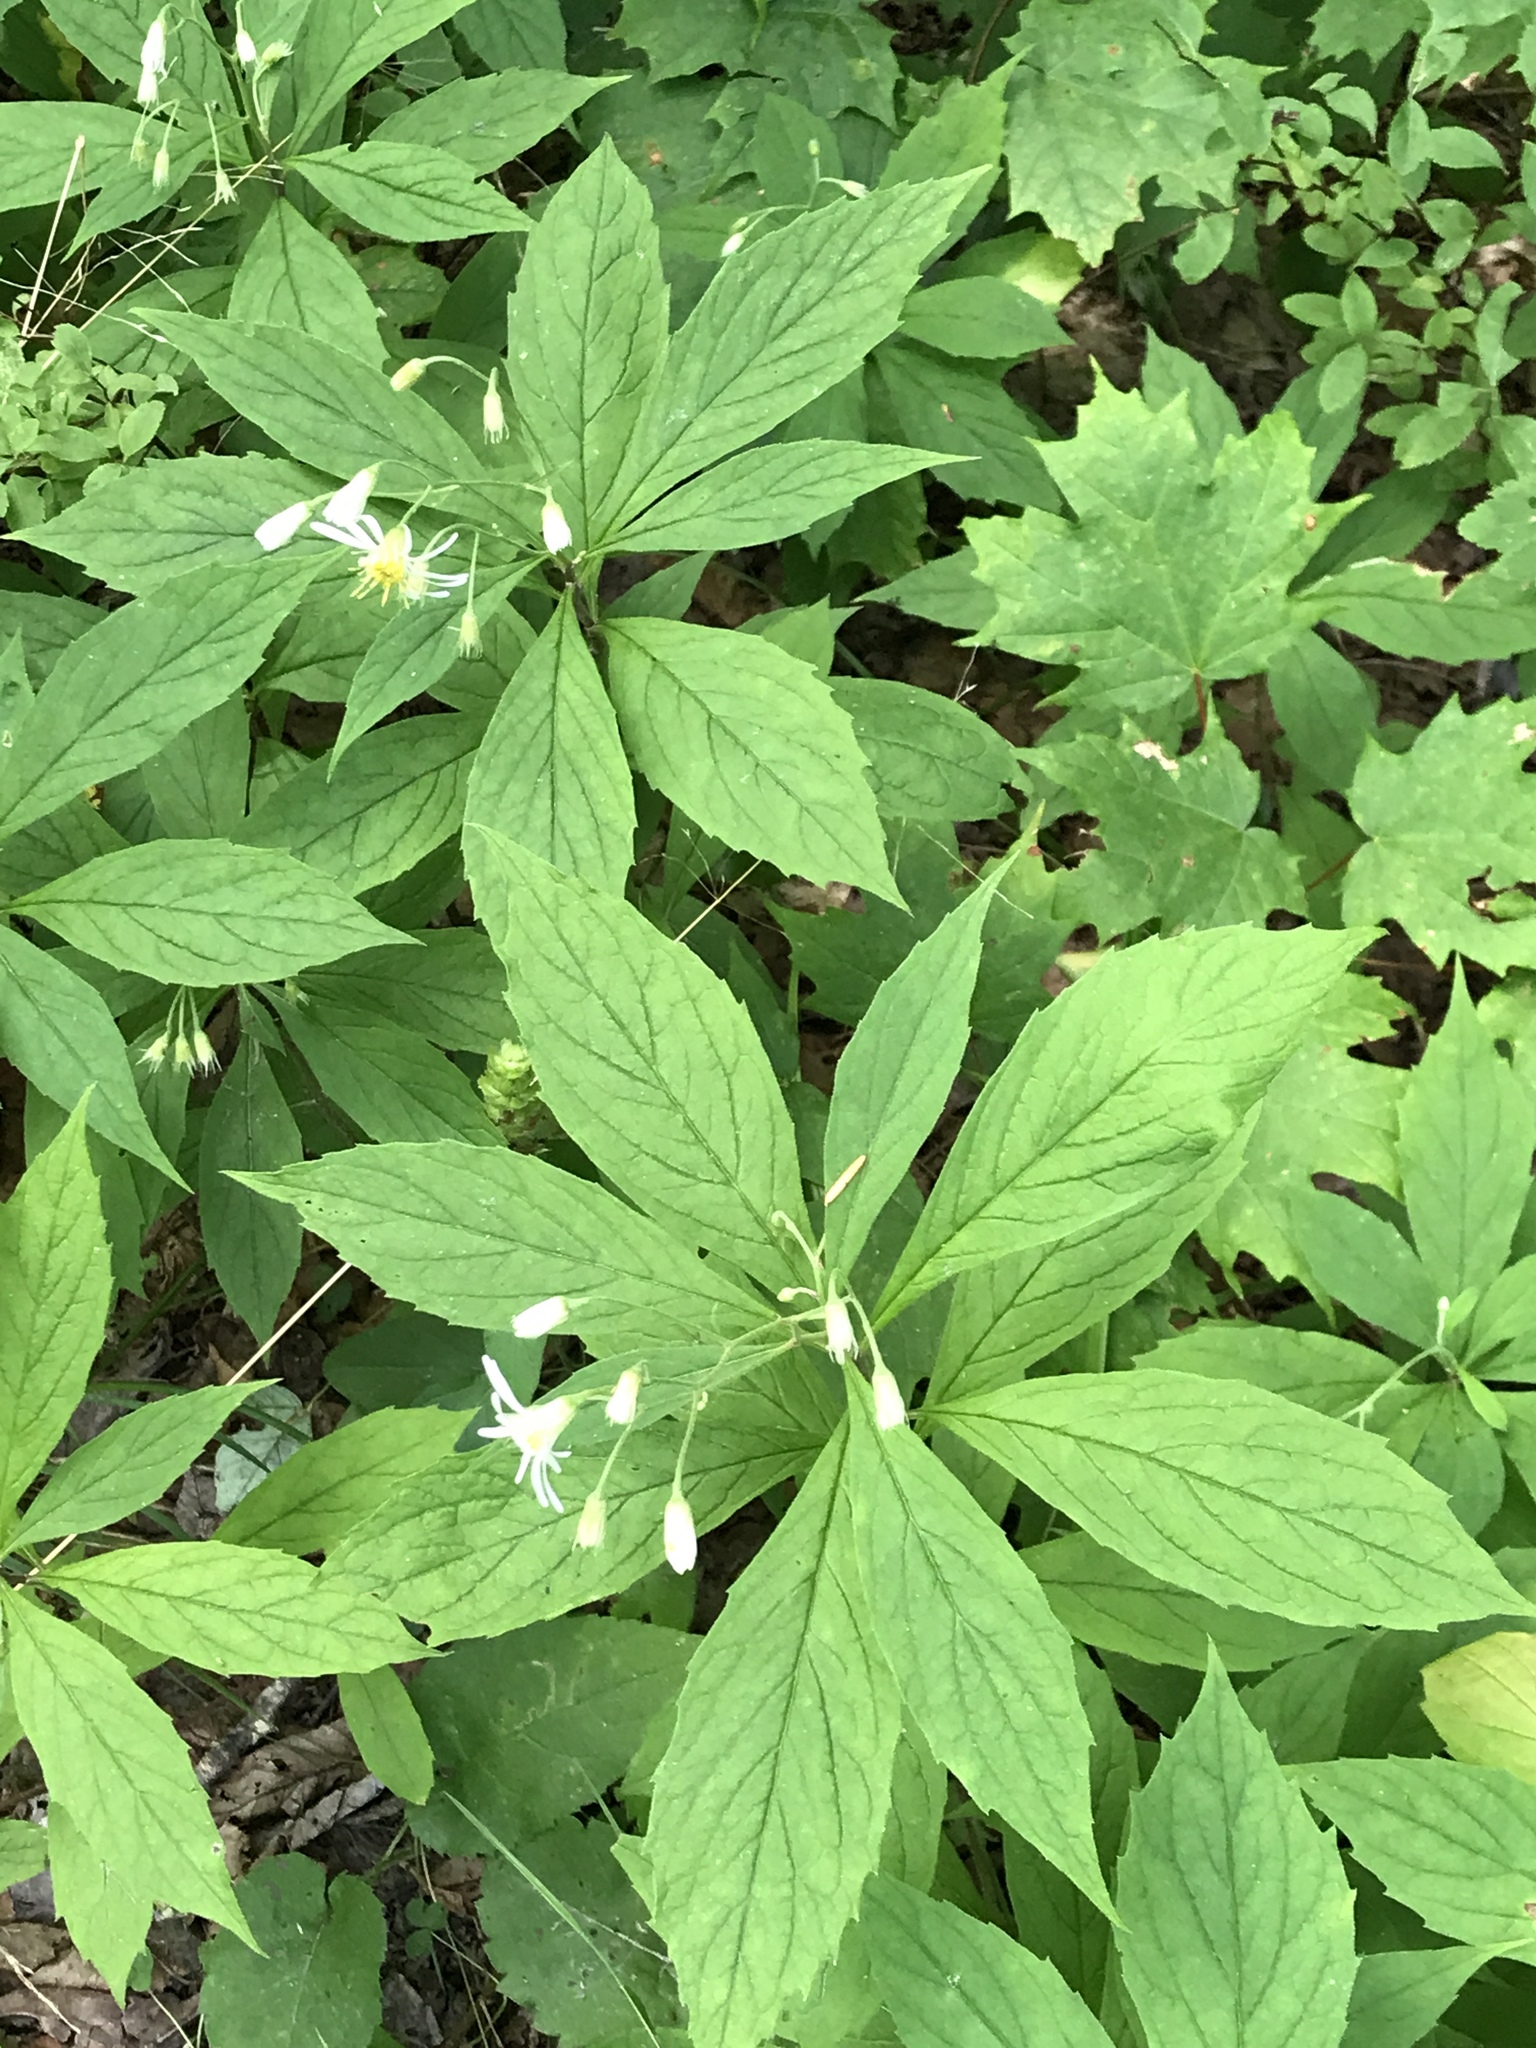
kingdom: Plantae
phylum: Tracheophyta
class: Magnoliopsida
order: Asterales
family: Asteraceae
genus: Oclemena
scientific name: Oclemena acuminata
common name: Mountain aster
